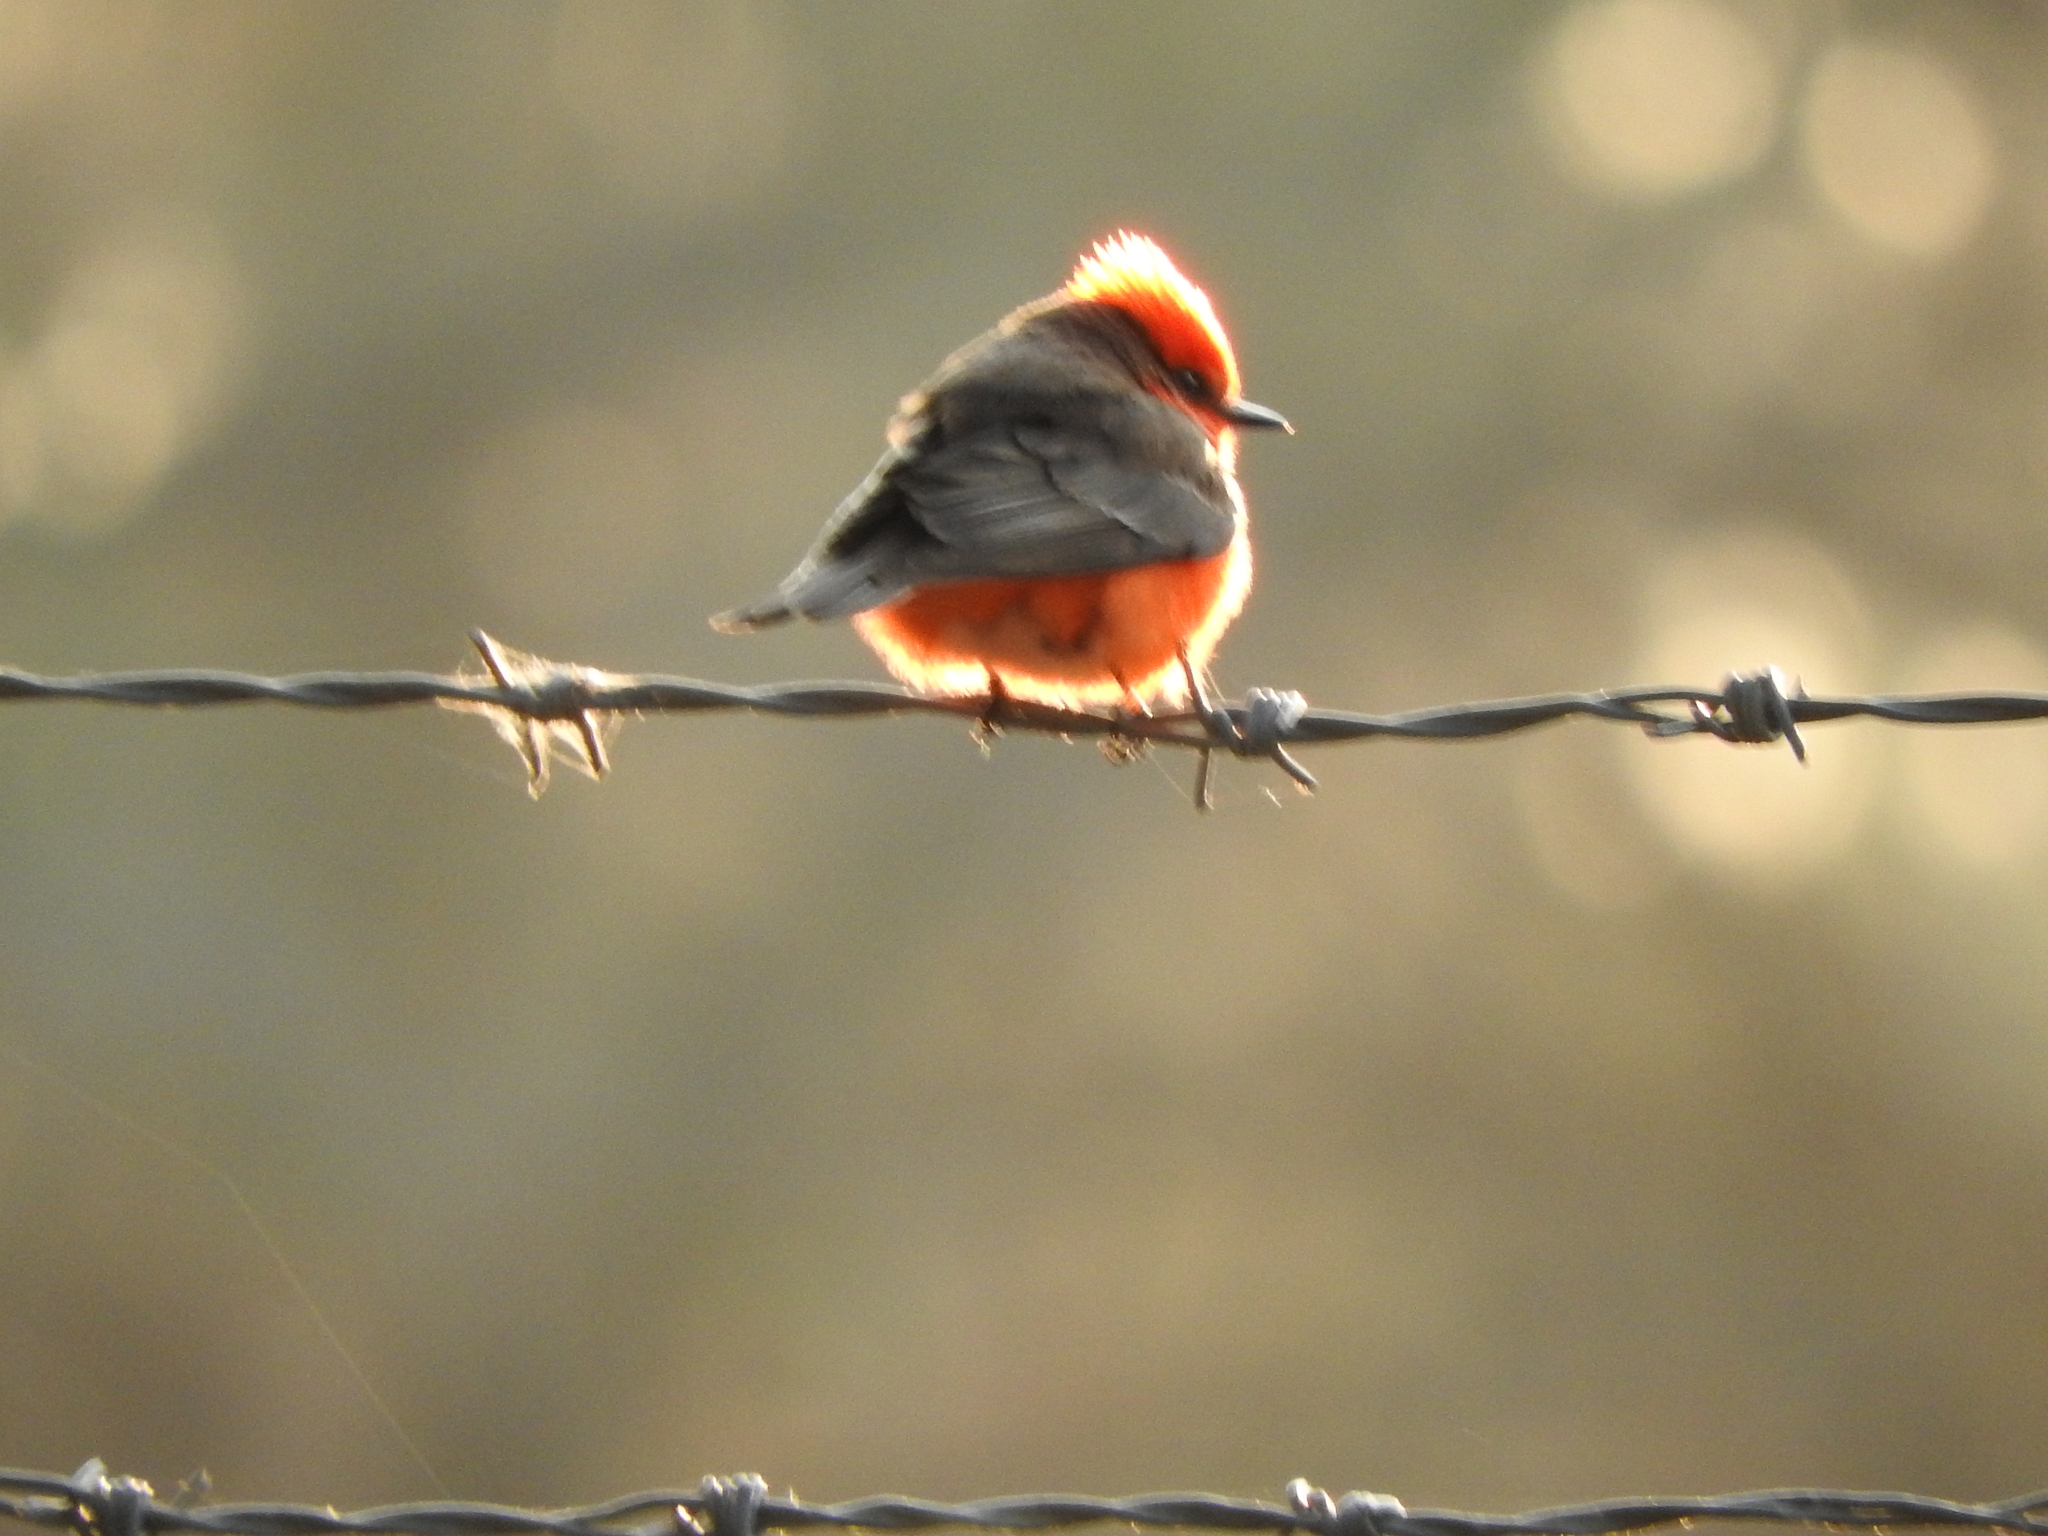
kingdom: Animalia
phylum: Chordata
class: Aves
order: Passeriformes
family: Tyrannidae
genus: Pyrocephalus
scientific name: Pyrocephalus rubinus
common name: Vermilion flycatcher
